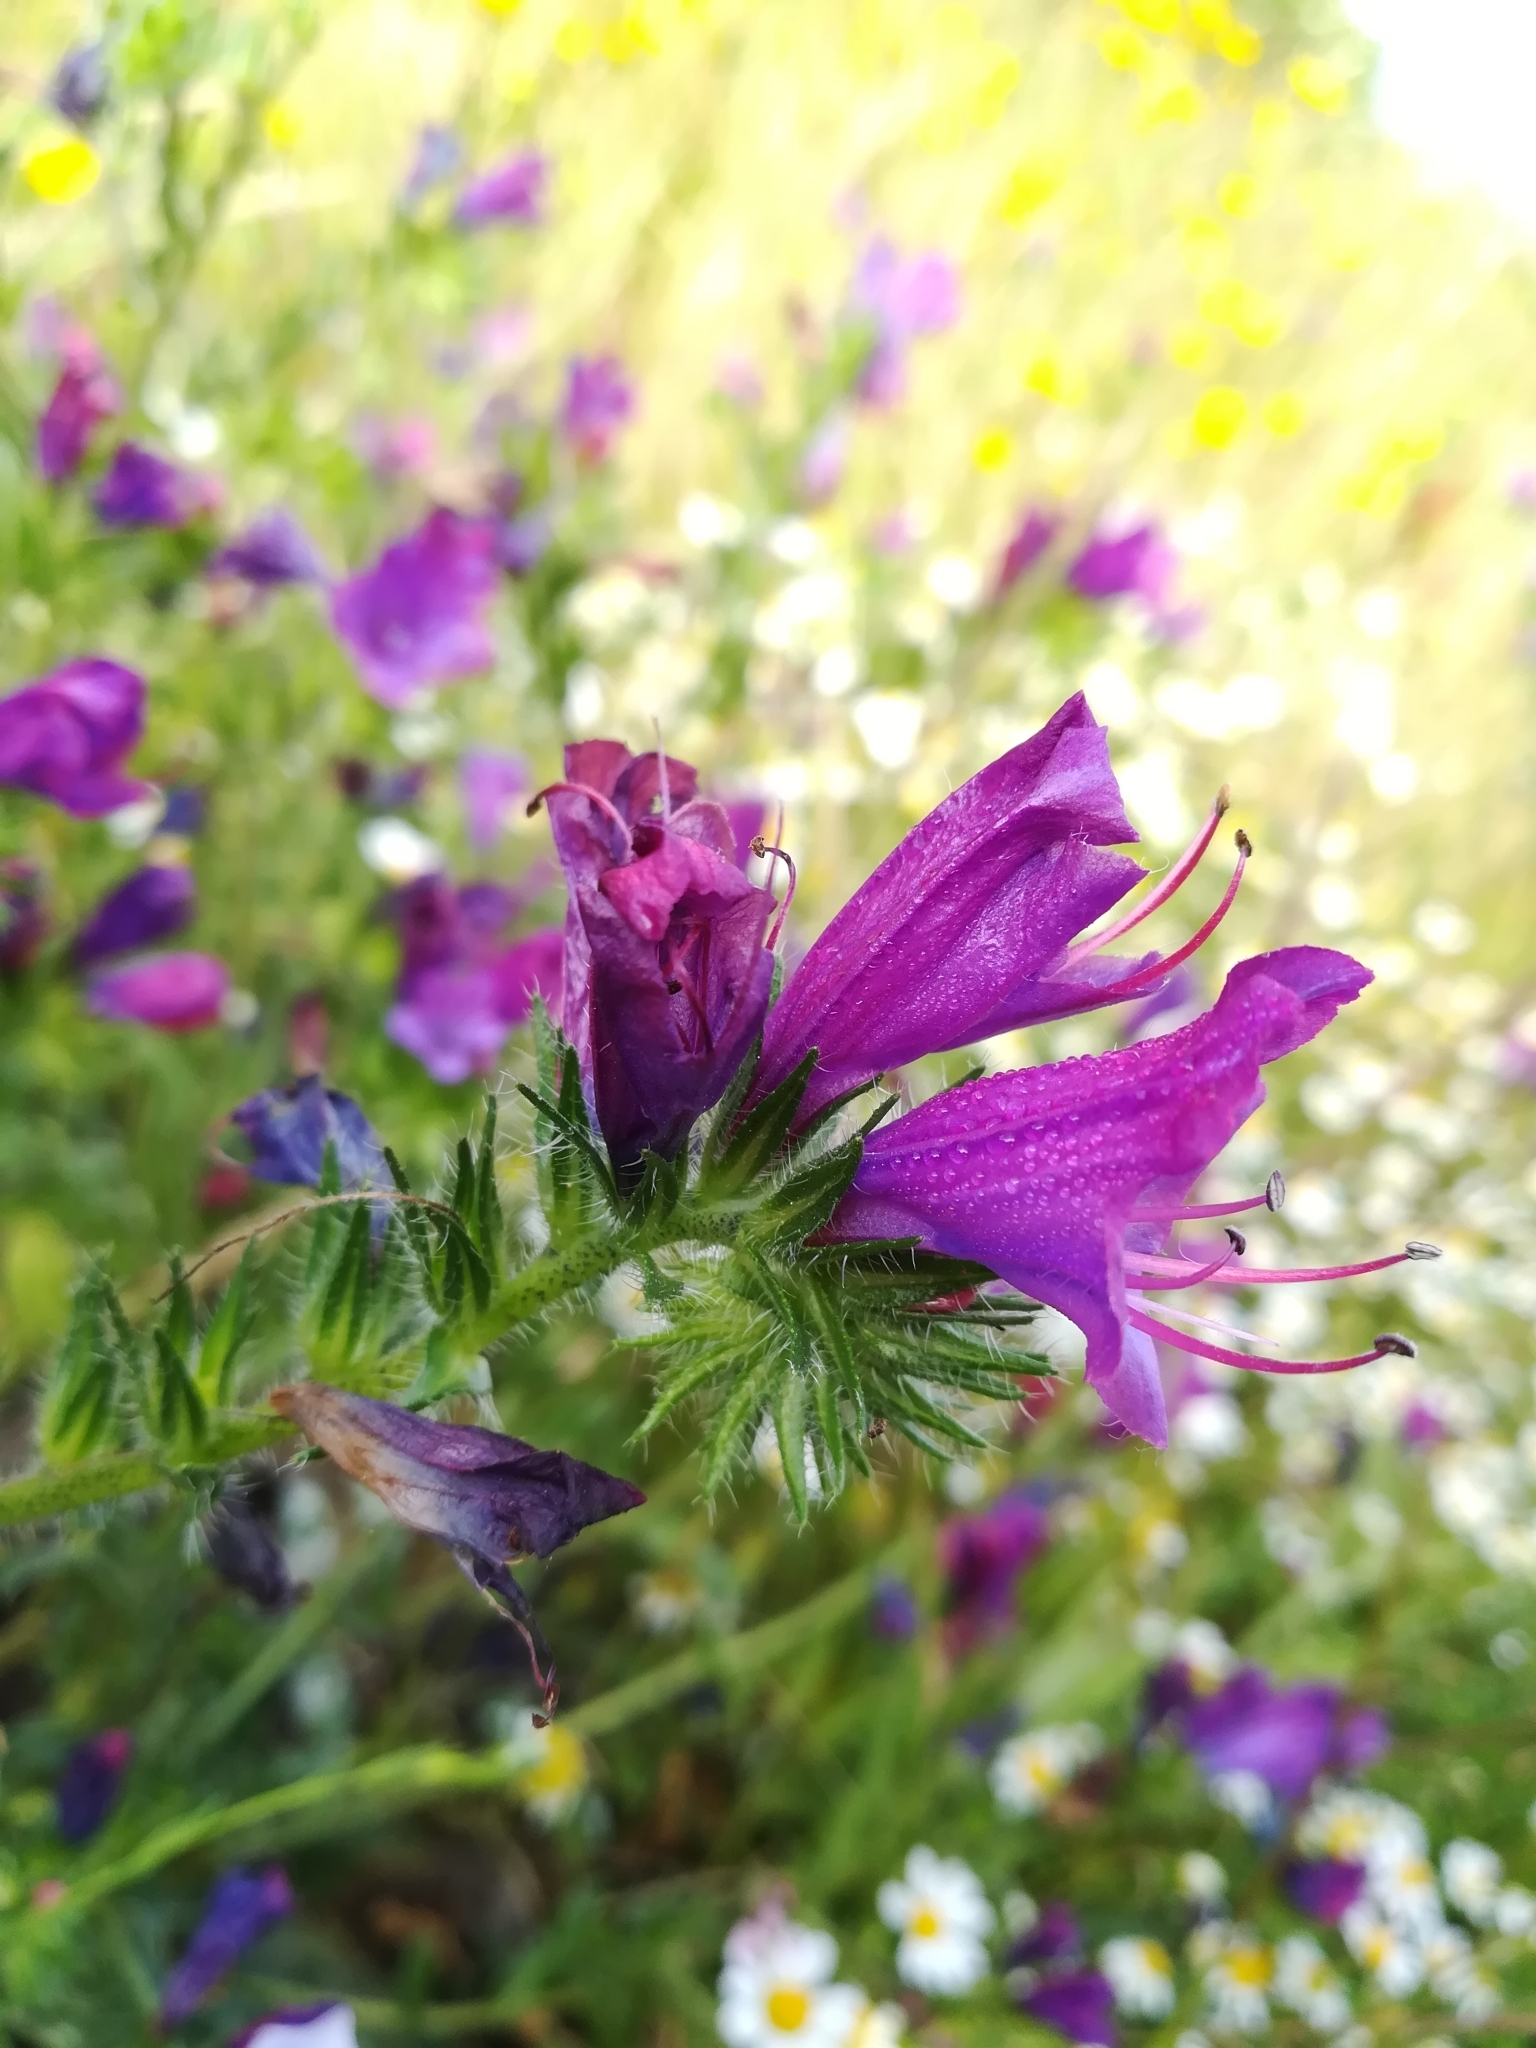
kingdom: Plantae
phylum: Tracheophyta
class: Magnoliopsida
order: Boraginales
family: Boraginaceae
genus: Echium
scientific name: Echium plantagineum
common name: Purple viper's-bugloss
